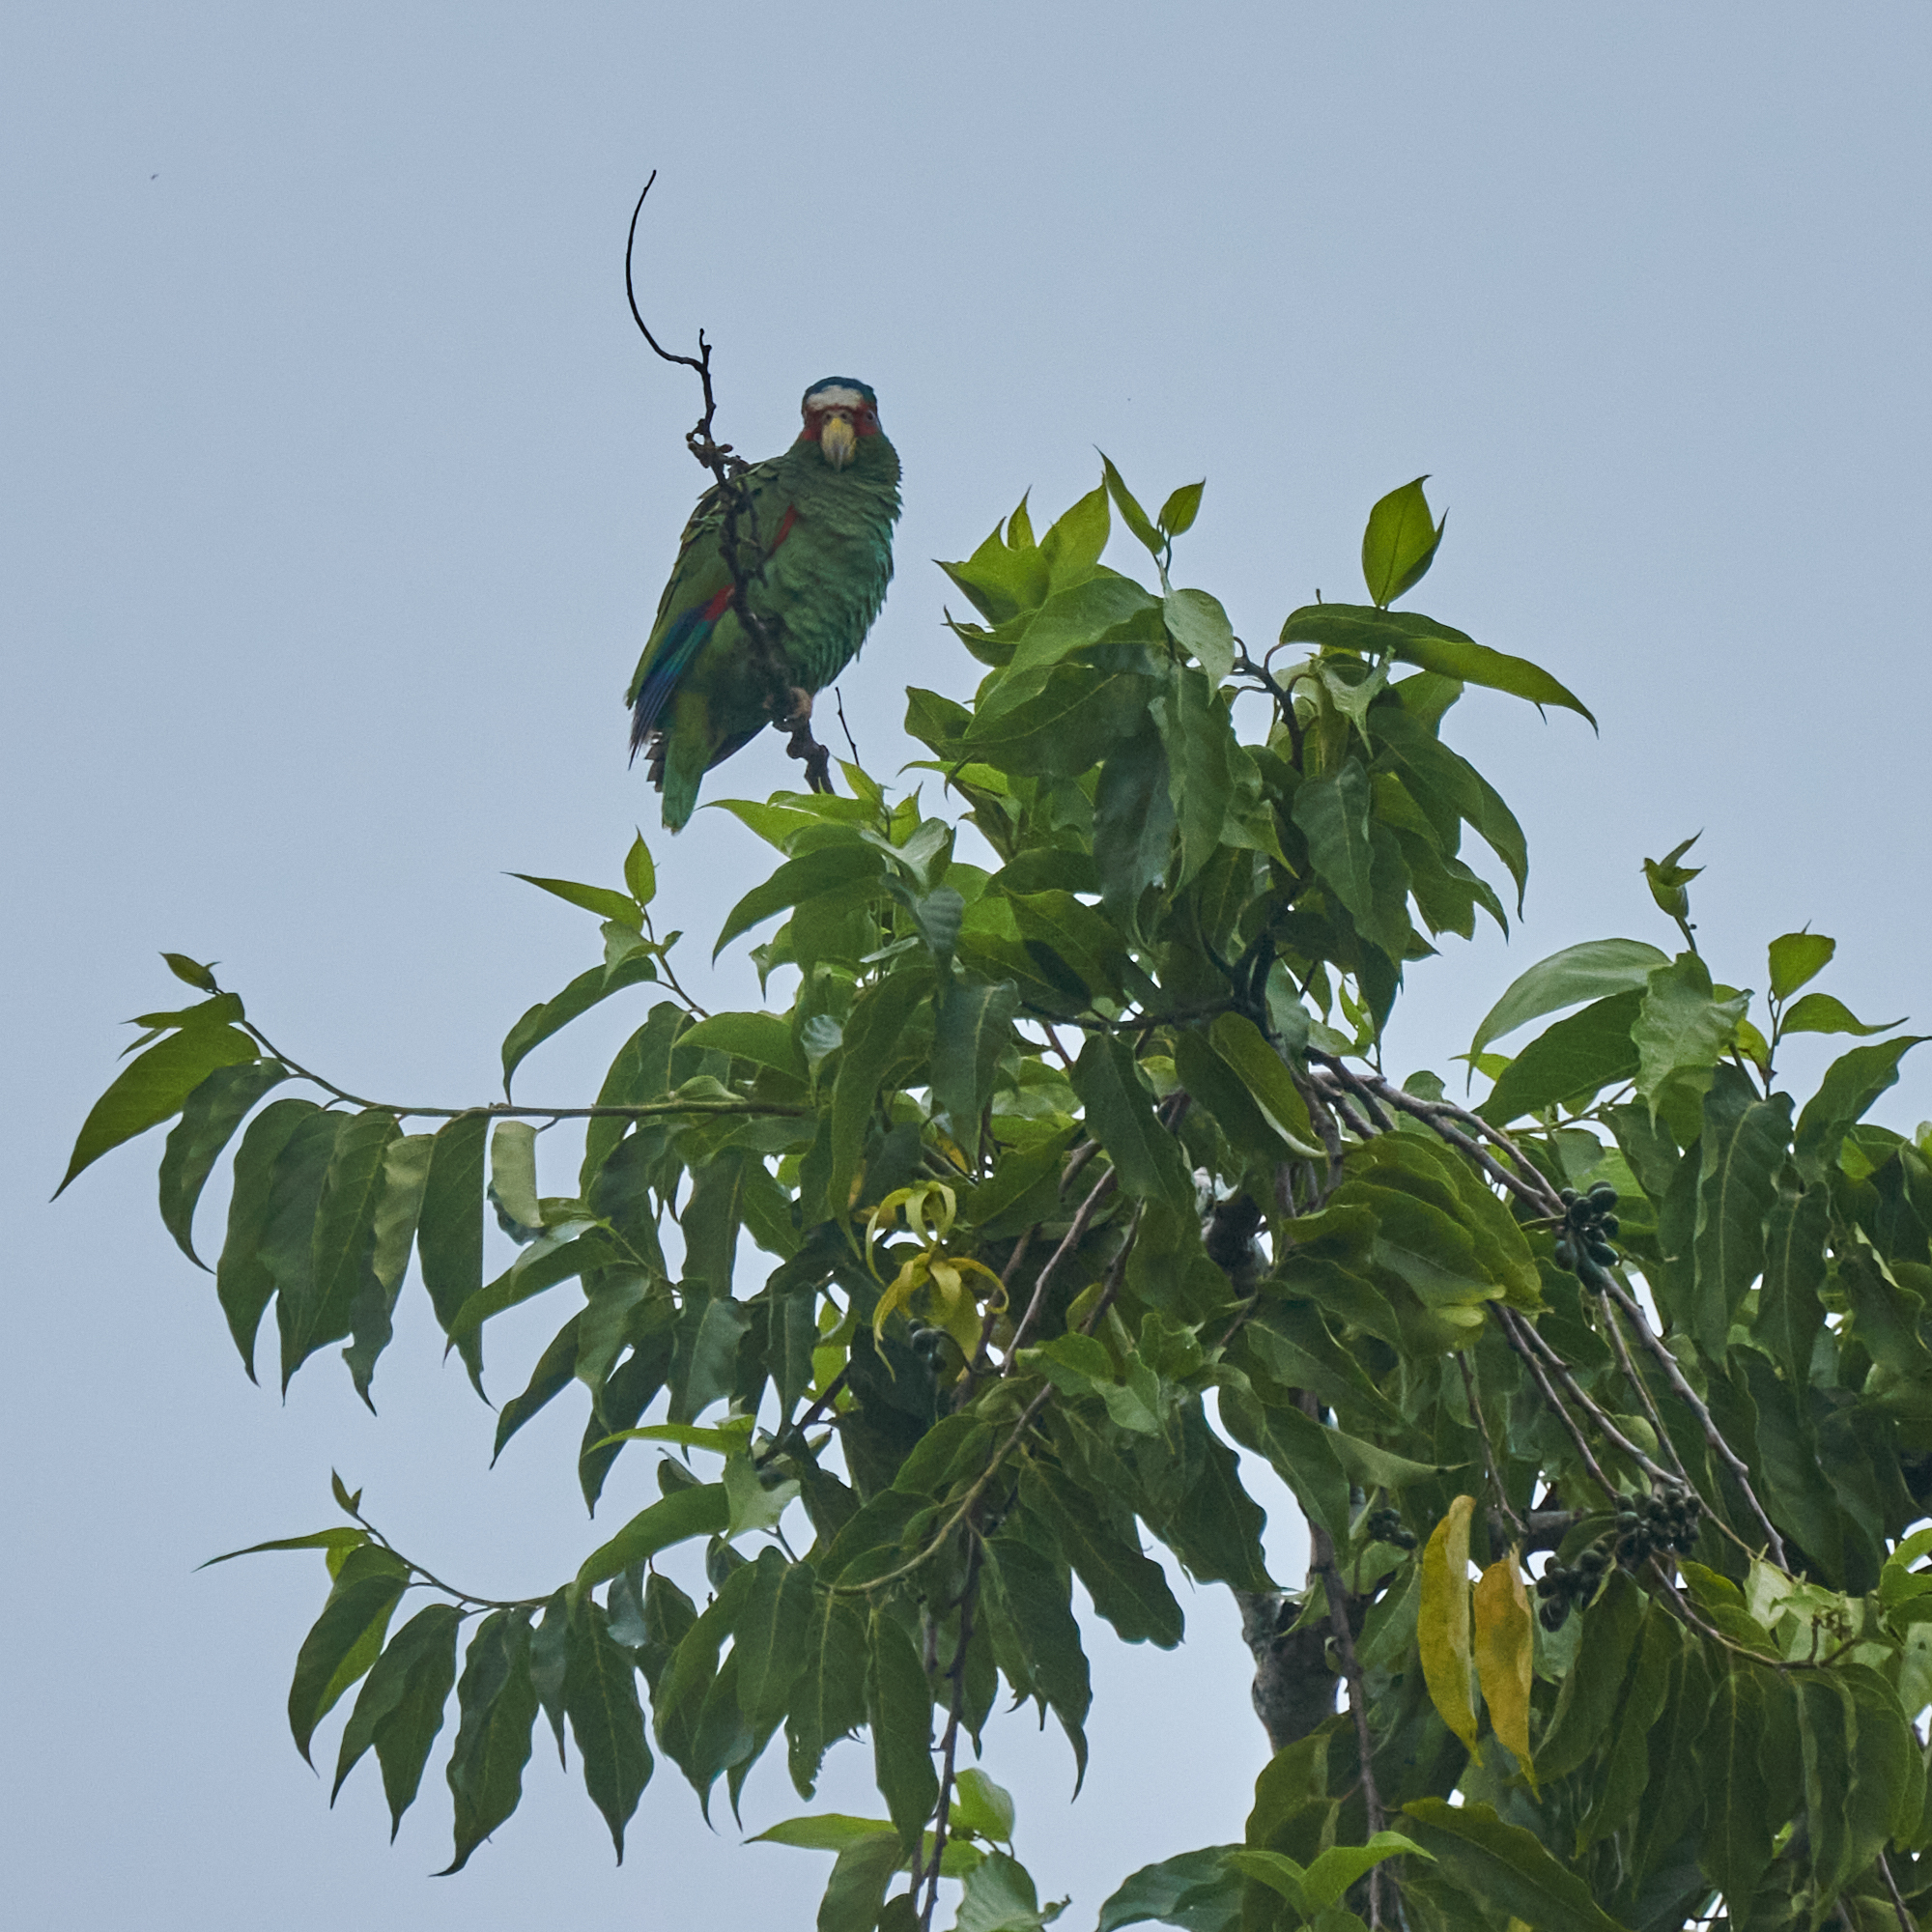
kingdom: Animalia
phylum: Chordata
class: Aves
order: Psittaciformes
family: Psittacidae
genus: Amazona
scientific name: Amazona albifrons
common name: White-fronted amazon
